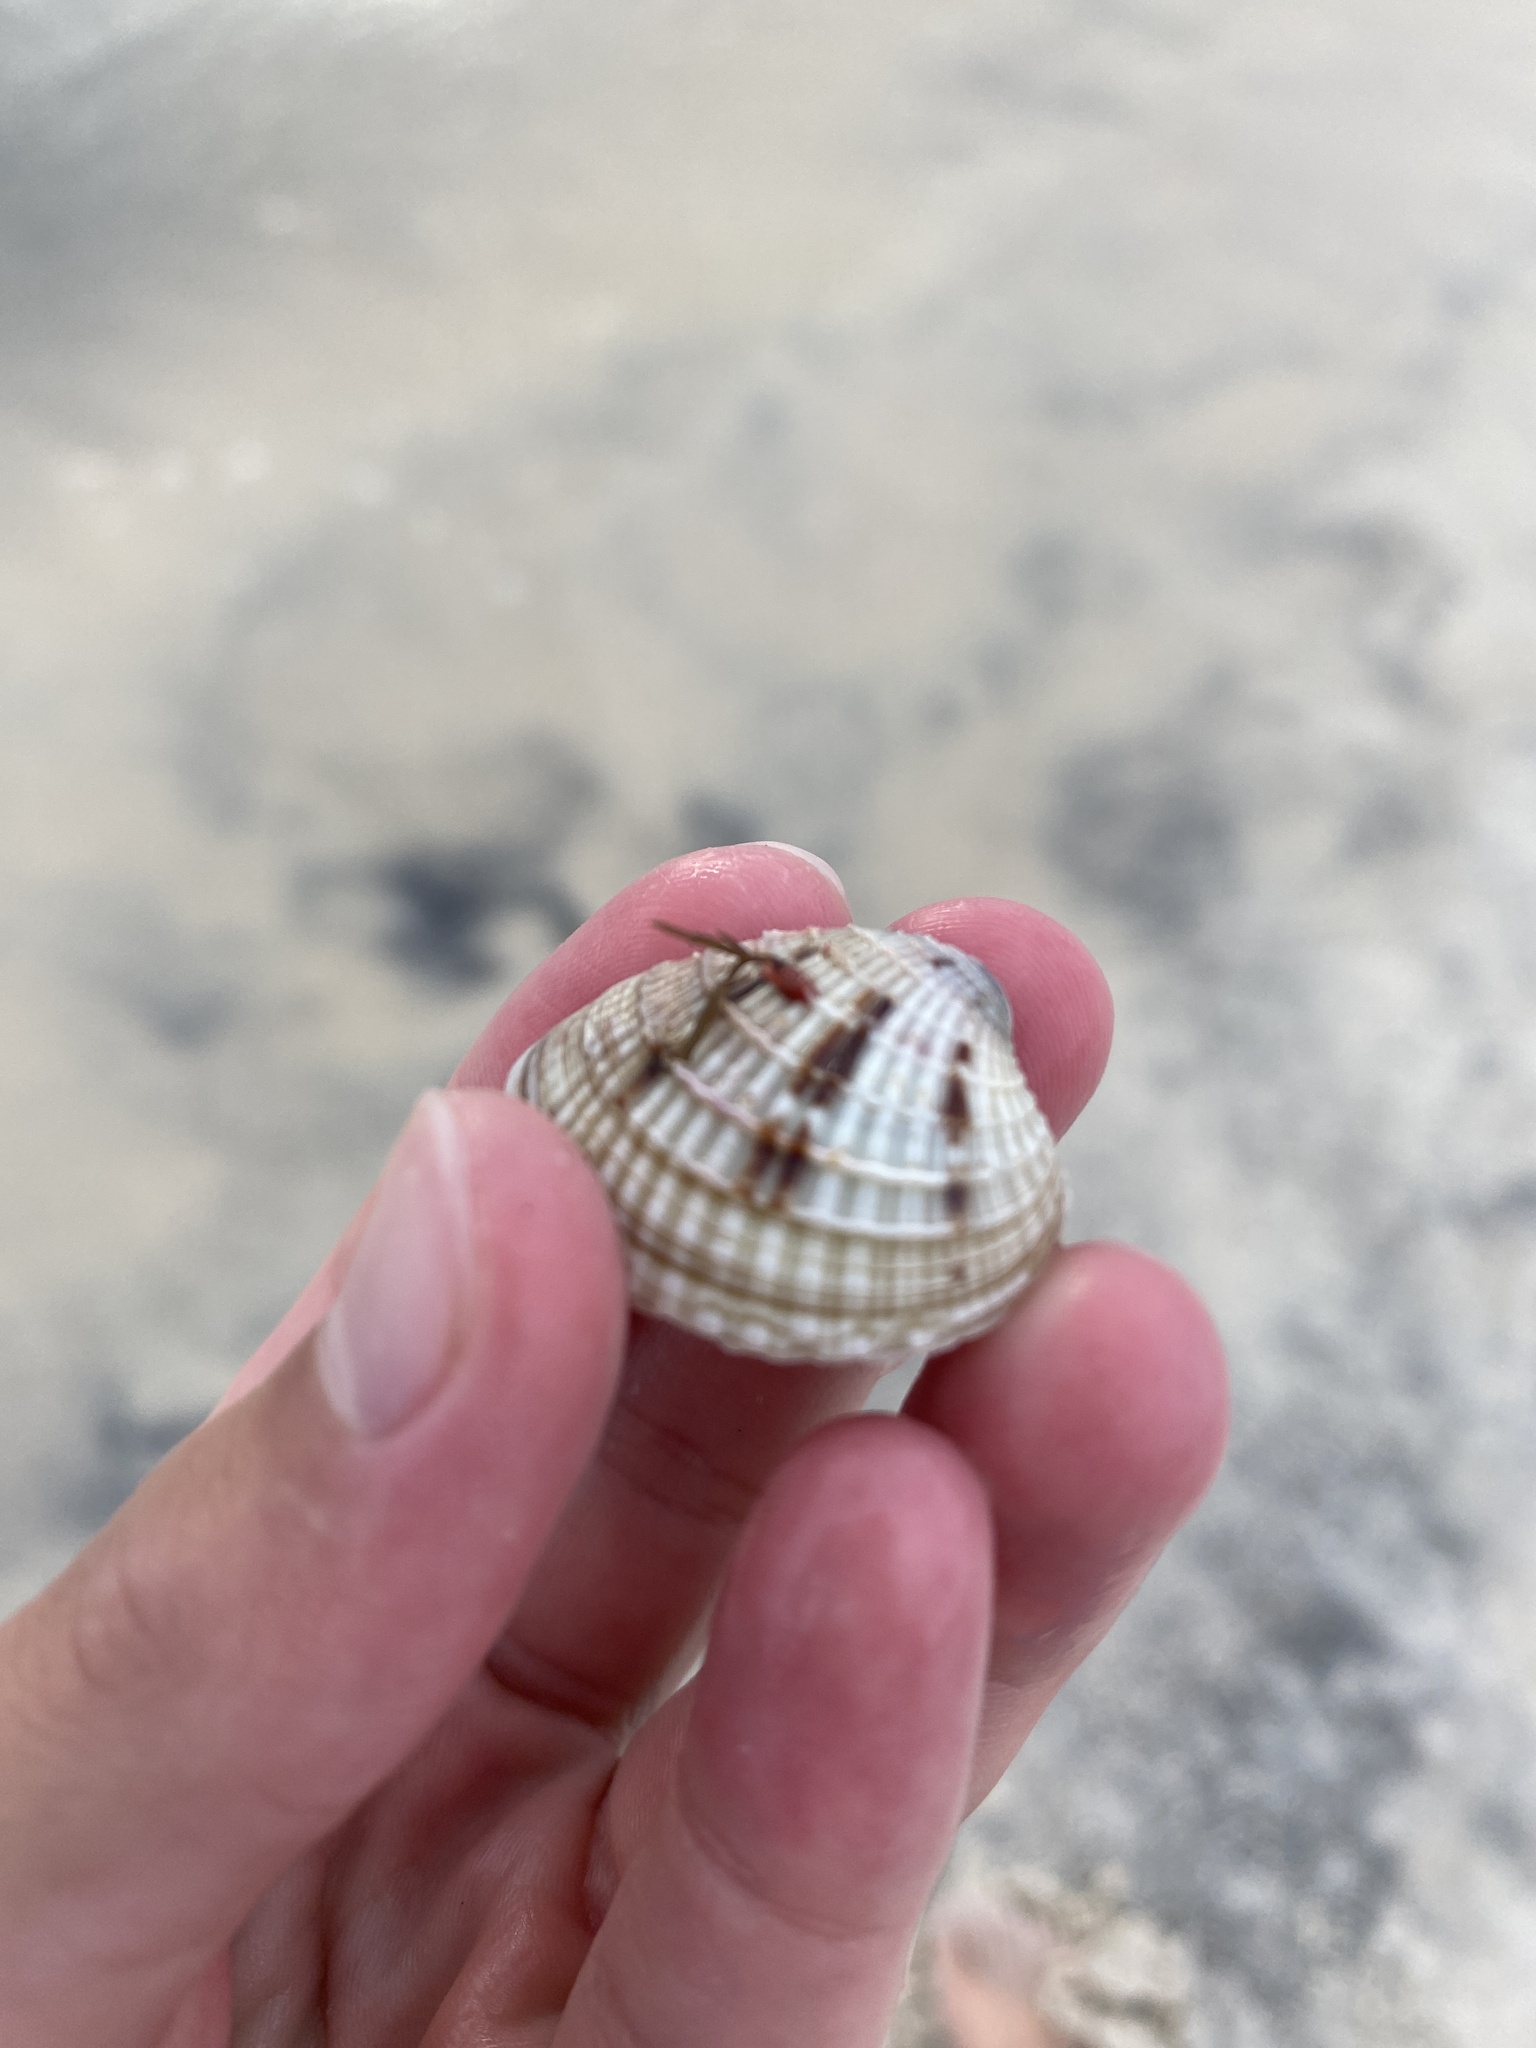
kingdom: Animalia
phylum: Mollusca
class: Bivalvia
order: Venerida
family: Veneridae
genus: Chione
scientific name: Chione elevata
